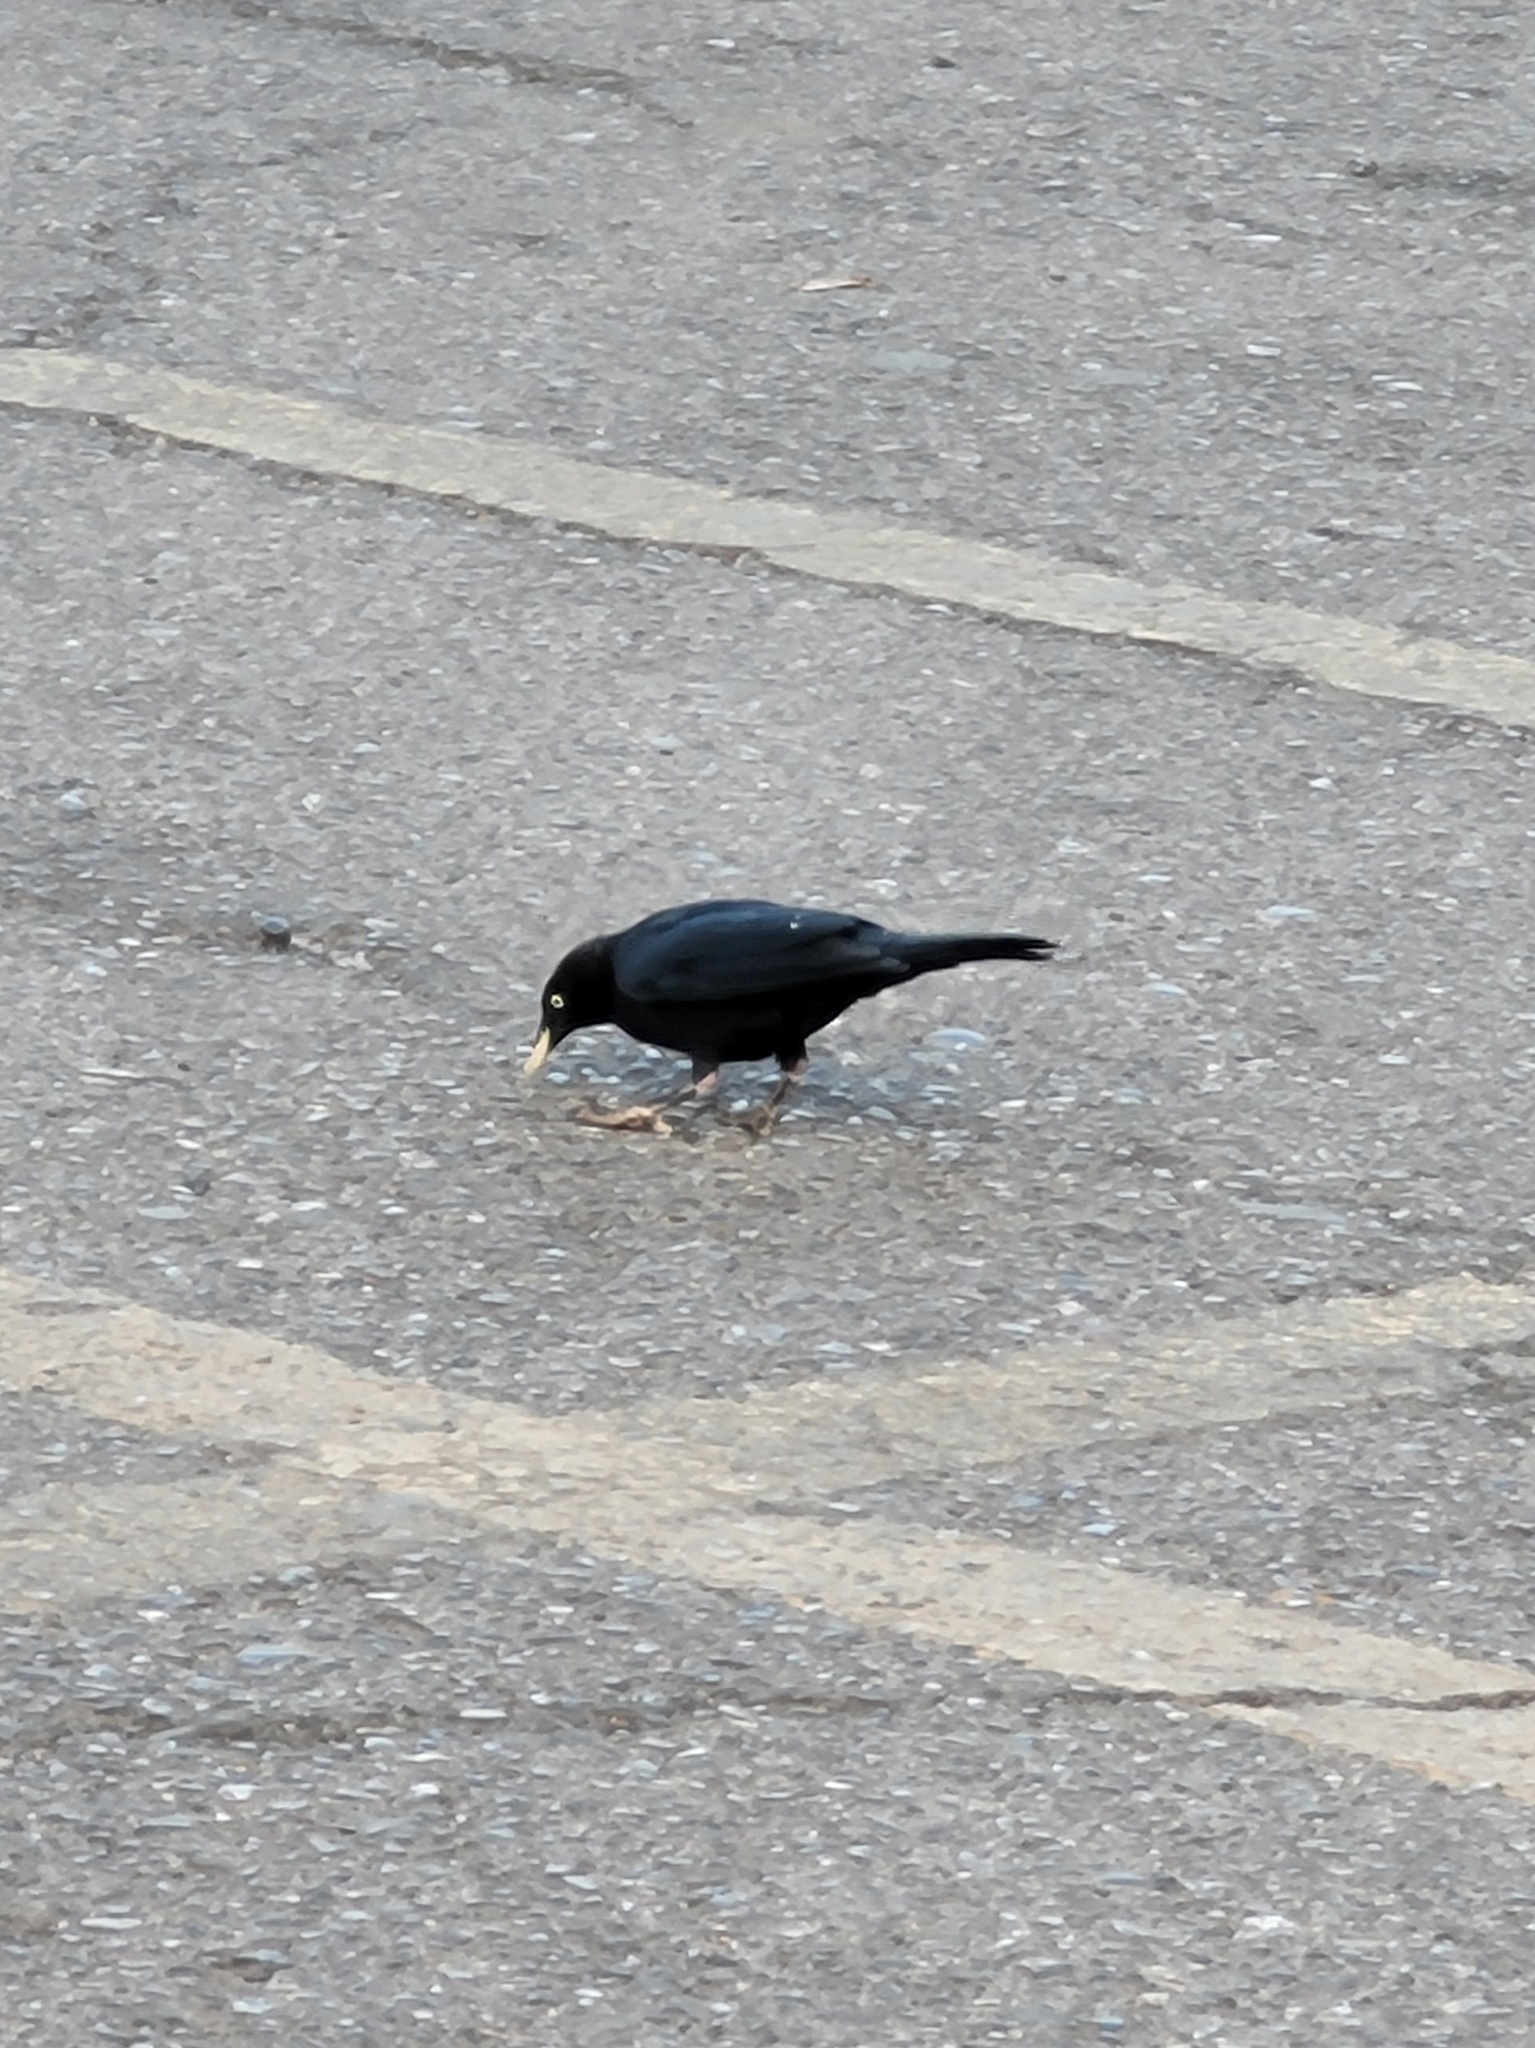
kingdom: Animalia
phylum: Chordata
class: Aves
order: Passeriformes
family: Icteridae
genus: Euphagus
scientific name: Euphagus cyanocephalus
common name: Brewer's blackbird
